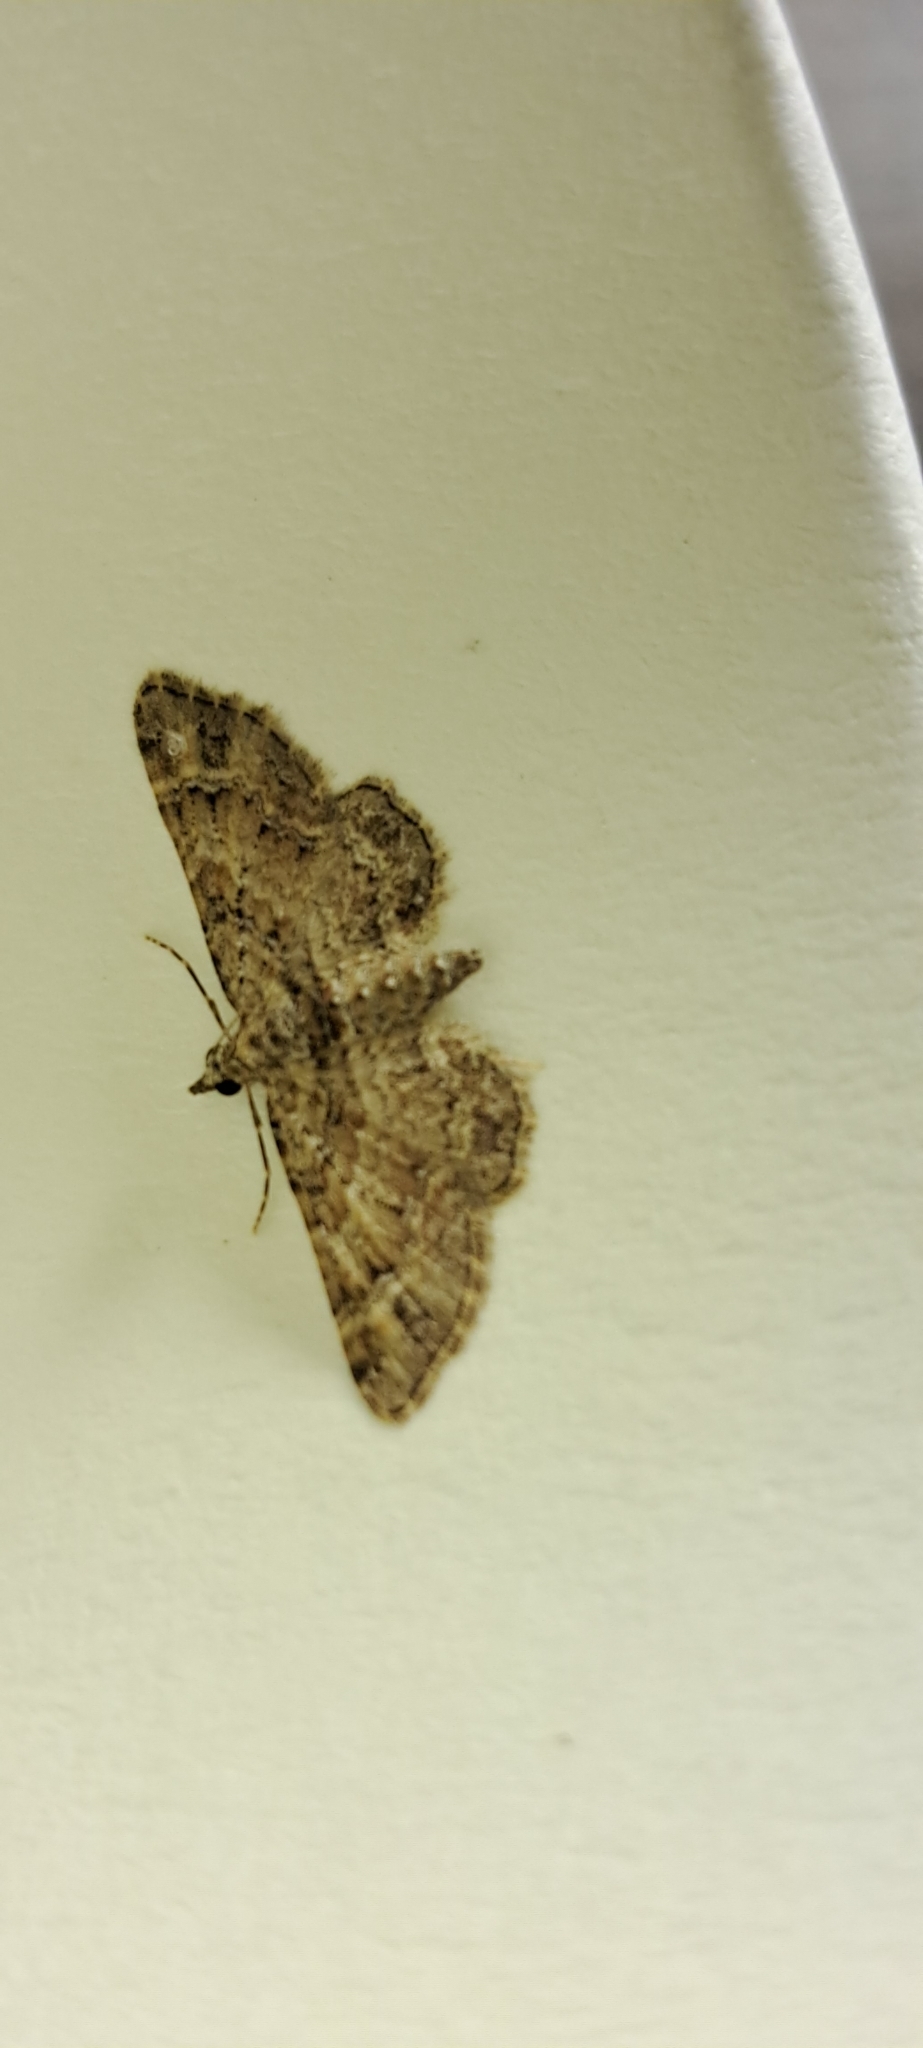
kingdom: Animalia
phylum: Arthropoda
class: Insecta
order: Lepidoptera
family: Geometridae
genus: Gymnoscelis
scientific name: Gymnoscelis rufifasciata
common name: Double-striped pug
